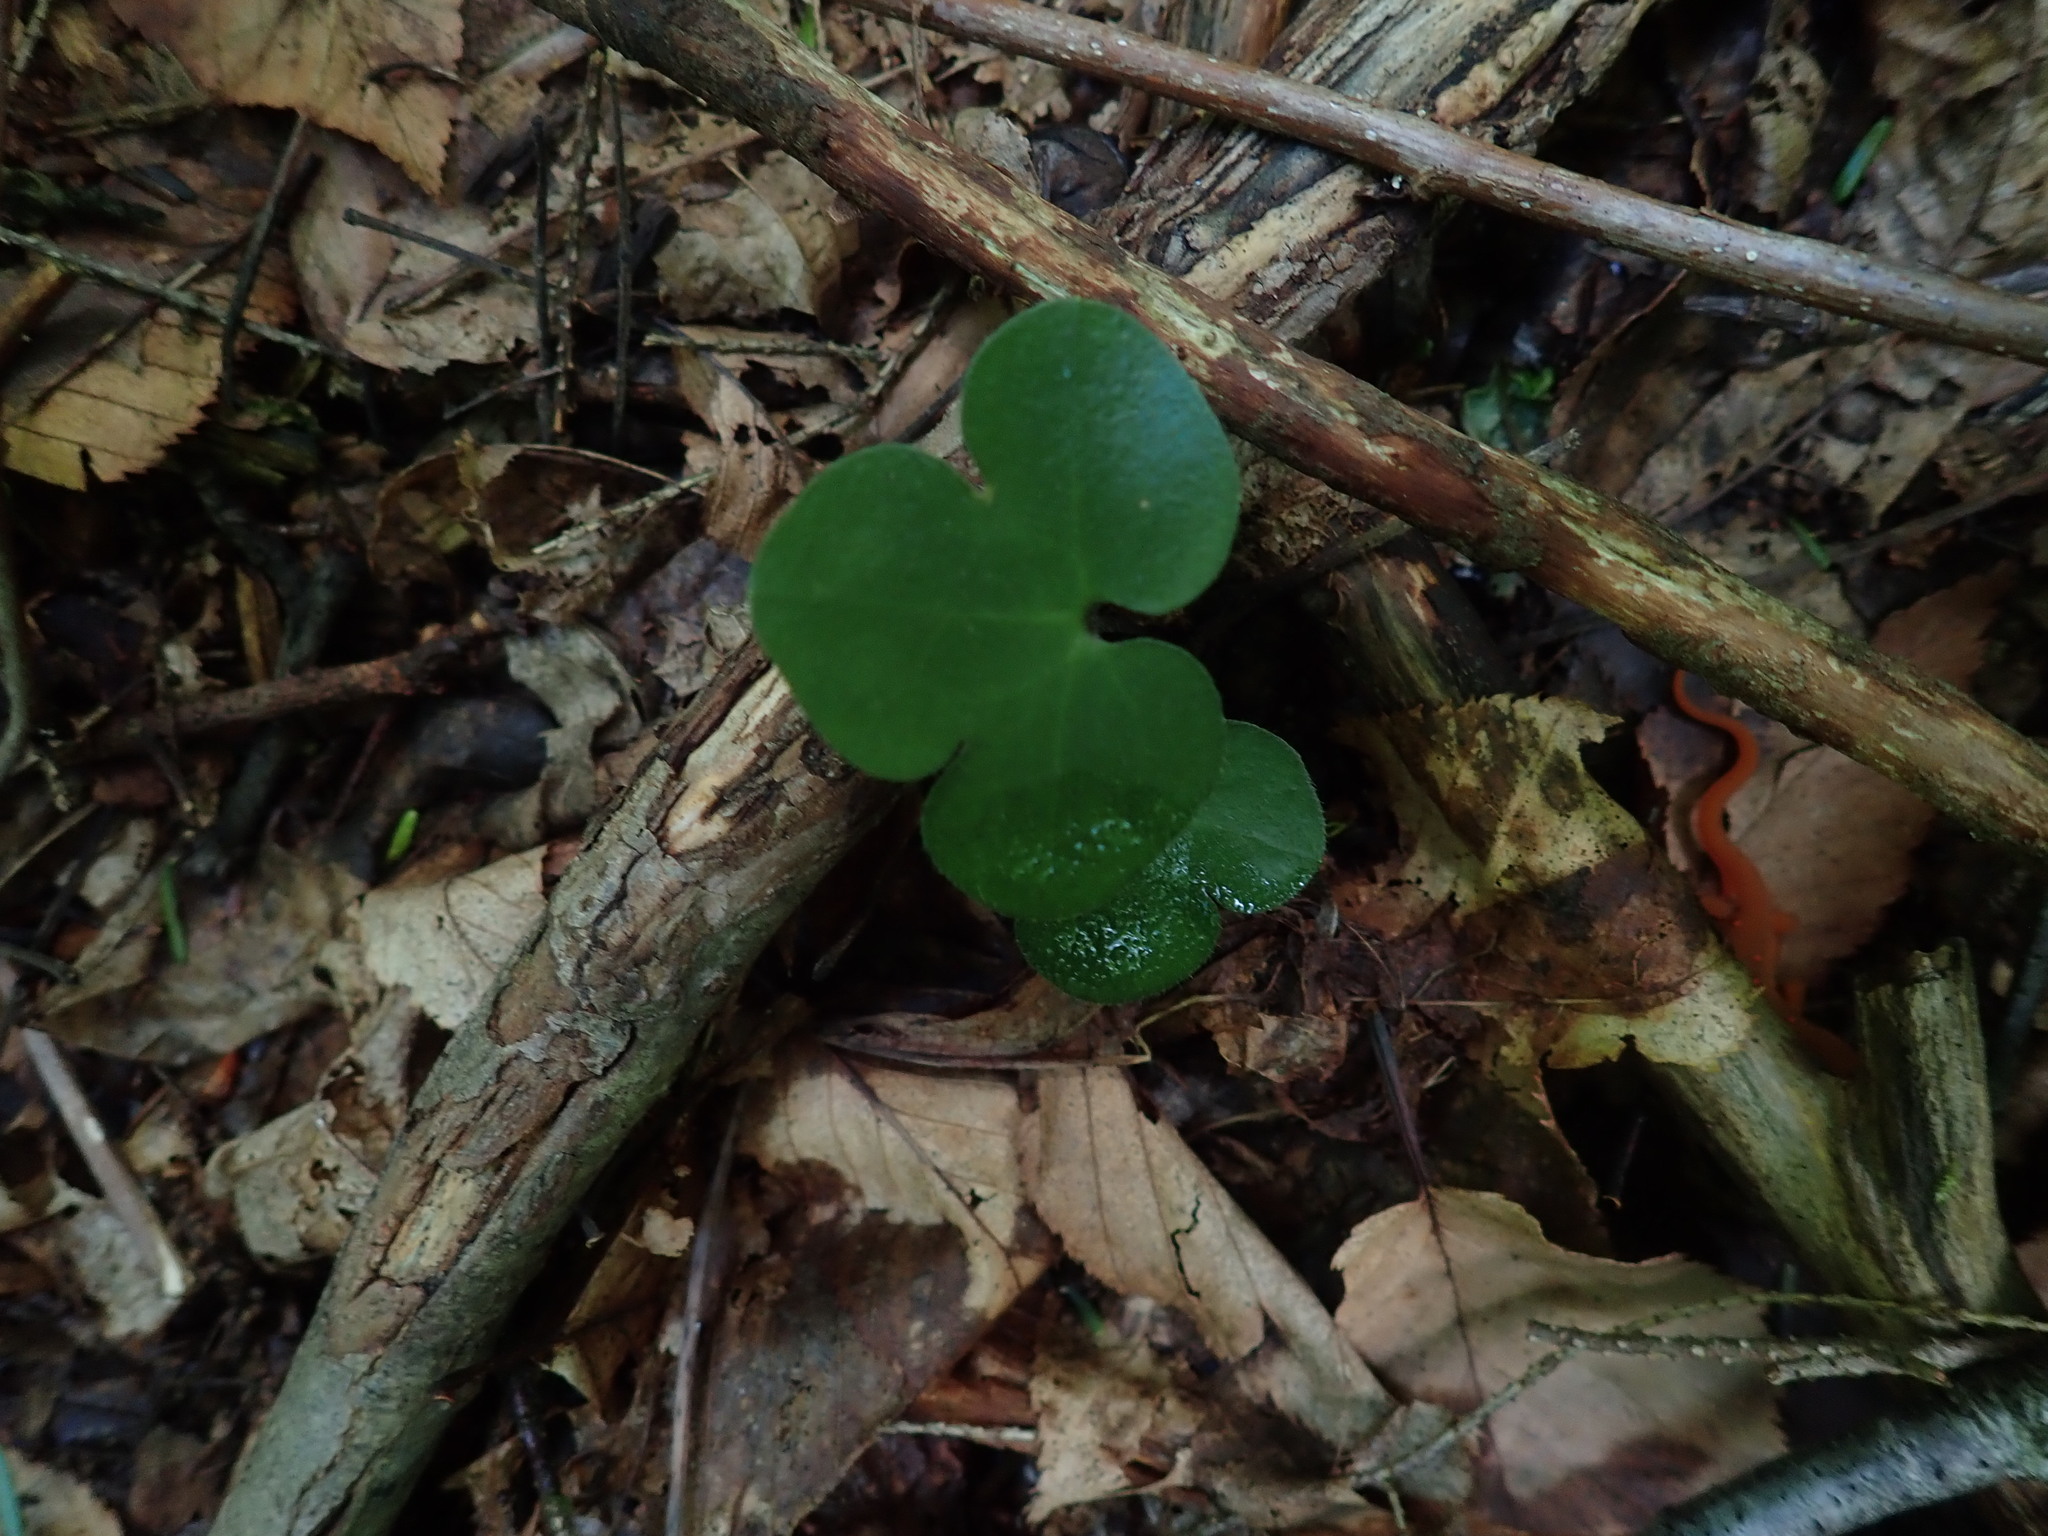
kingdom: Plantae
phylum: Tracheophyta
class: Magnoliopsida
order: Ranunculales
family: Ranunculaceae
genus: Hepatica
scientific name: Hepatica americana
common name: American hepatica
